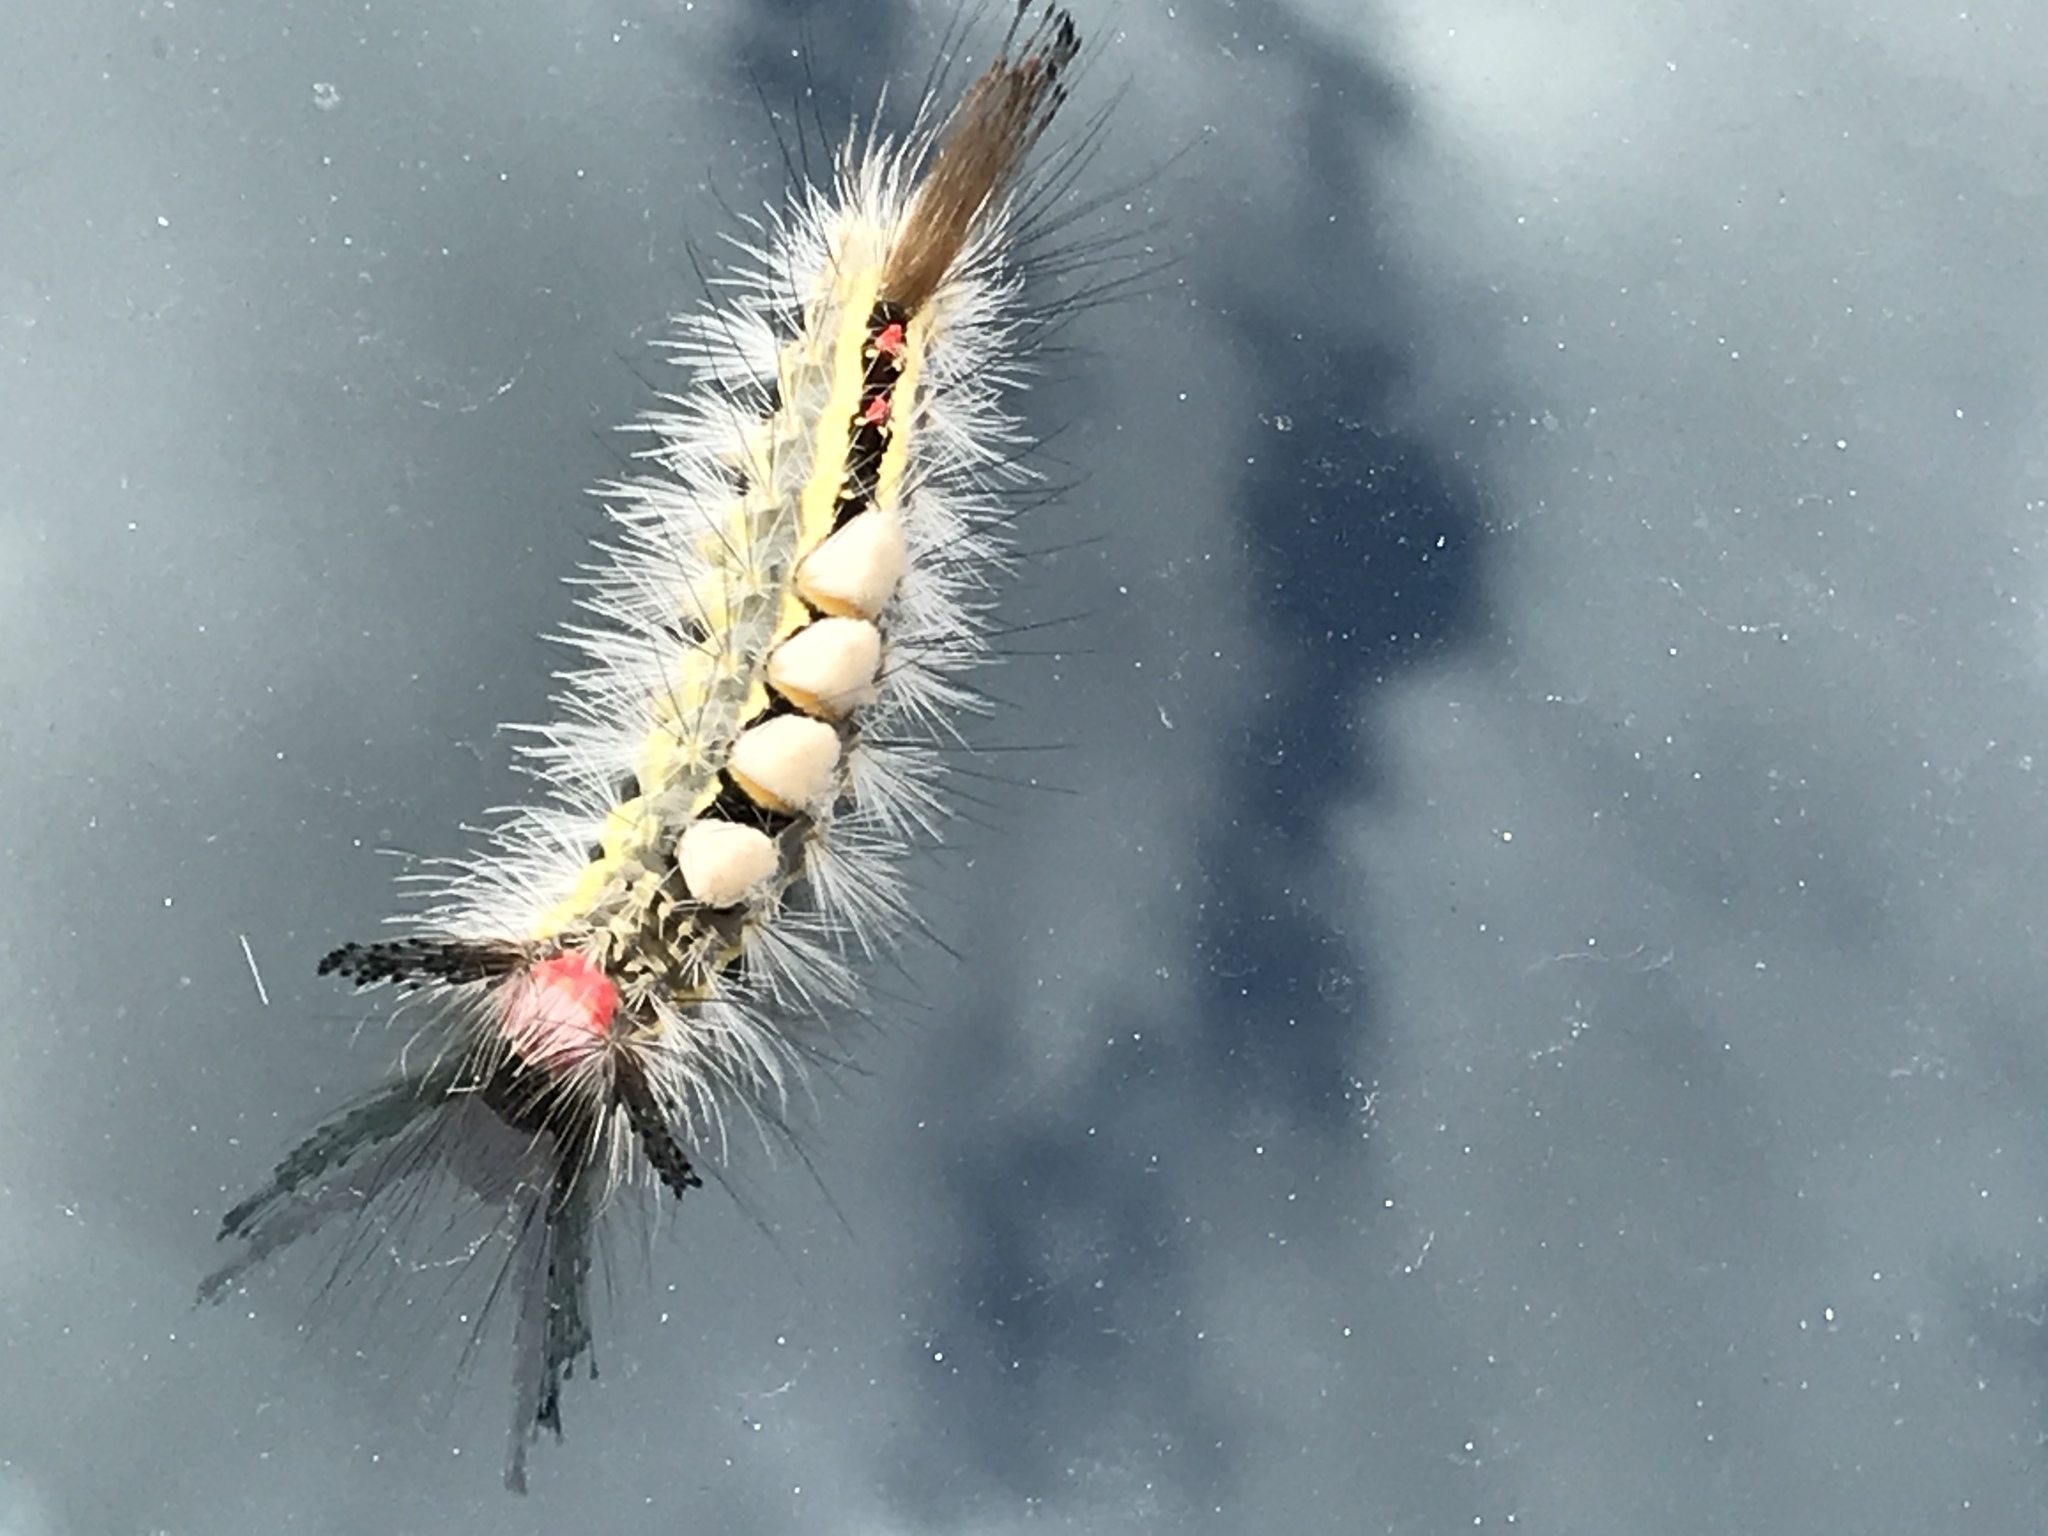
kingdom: Animalia
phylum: Arthropoda
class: Insecta
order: Lepidoptera
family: Erebidae
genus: Orgyia
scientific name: Orgyia leucostigma
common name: White-marked tussock moth
